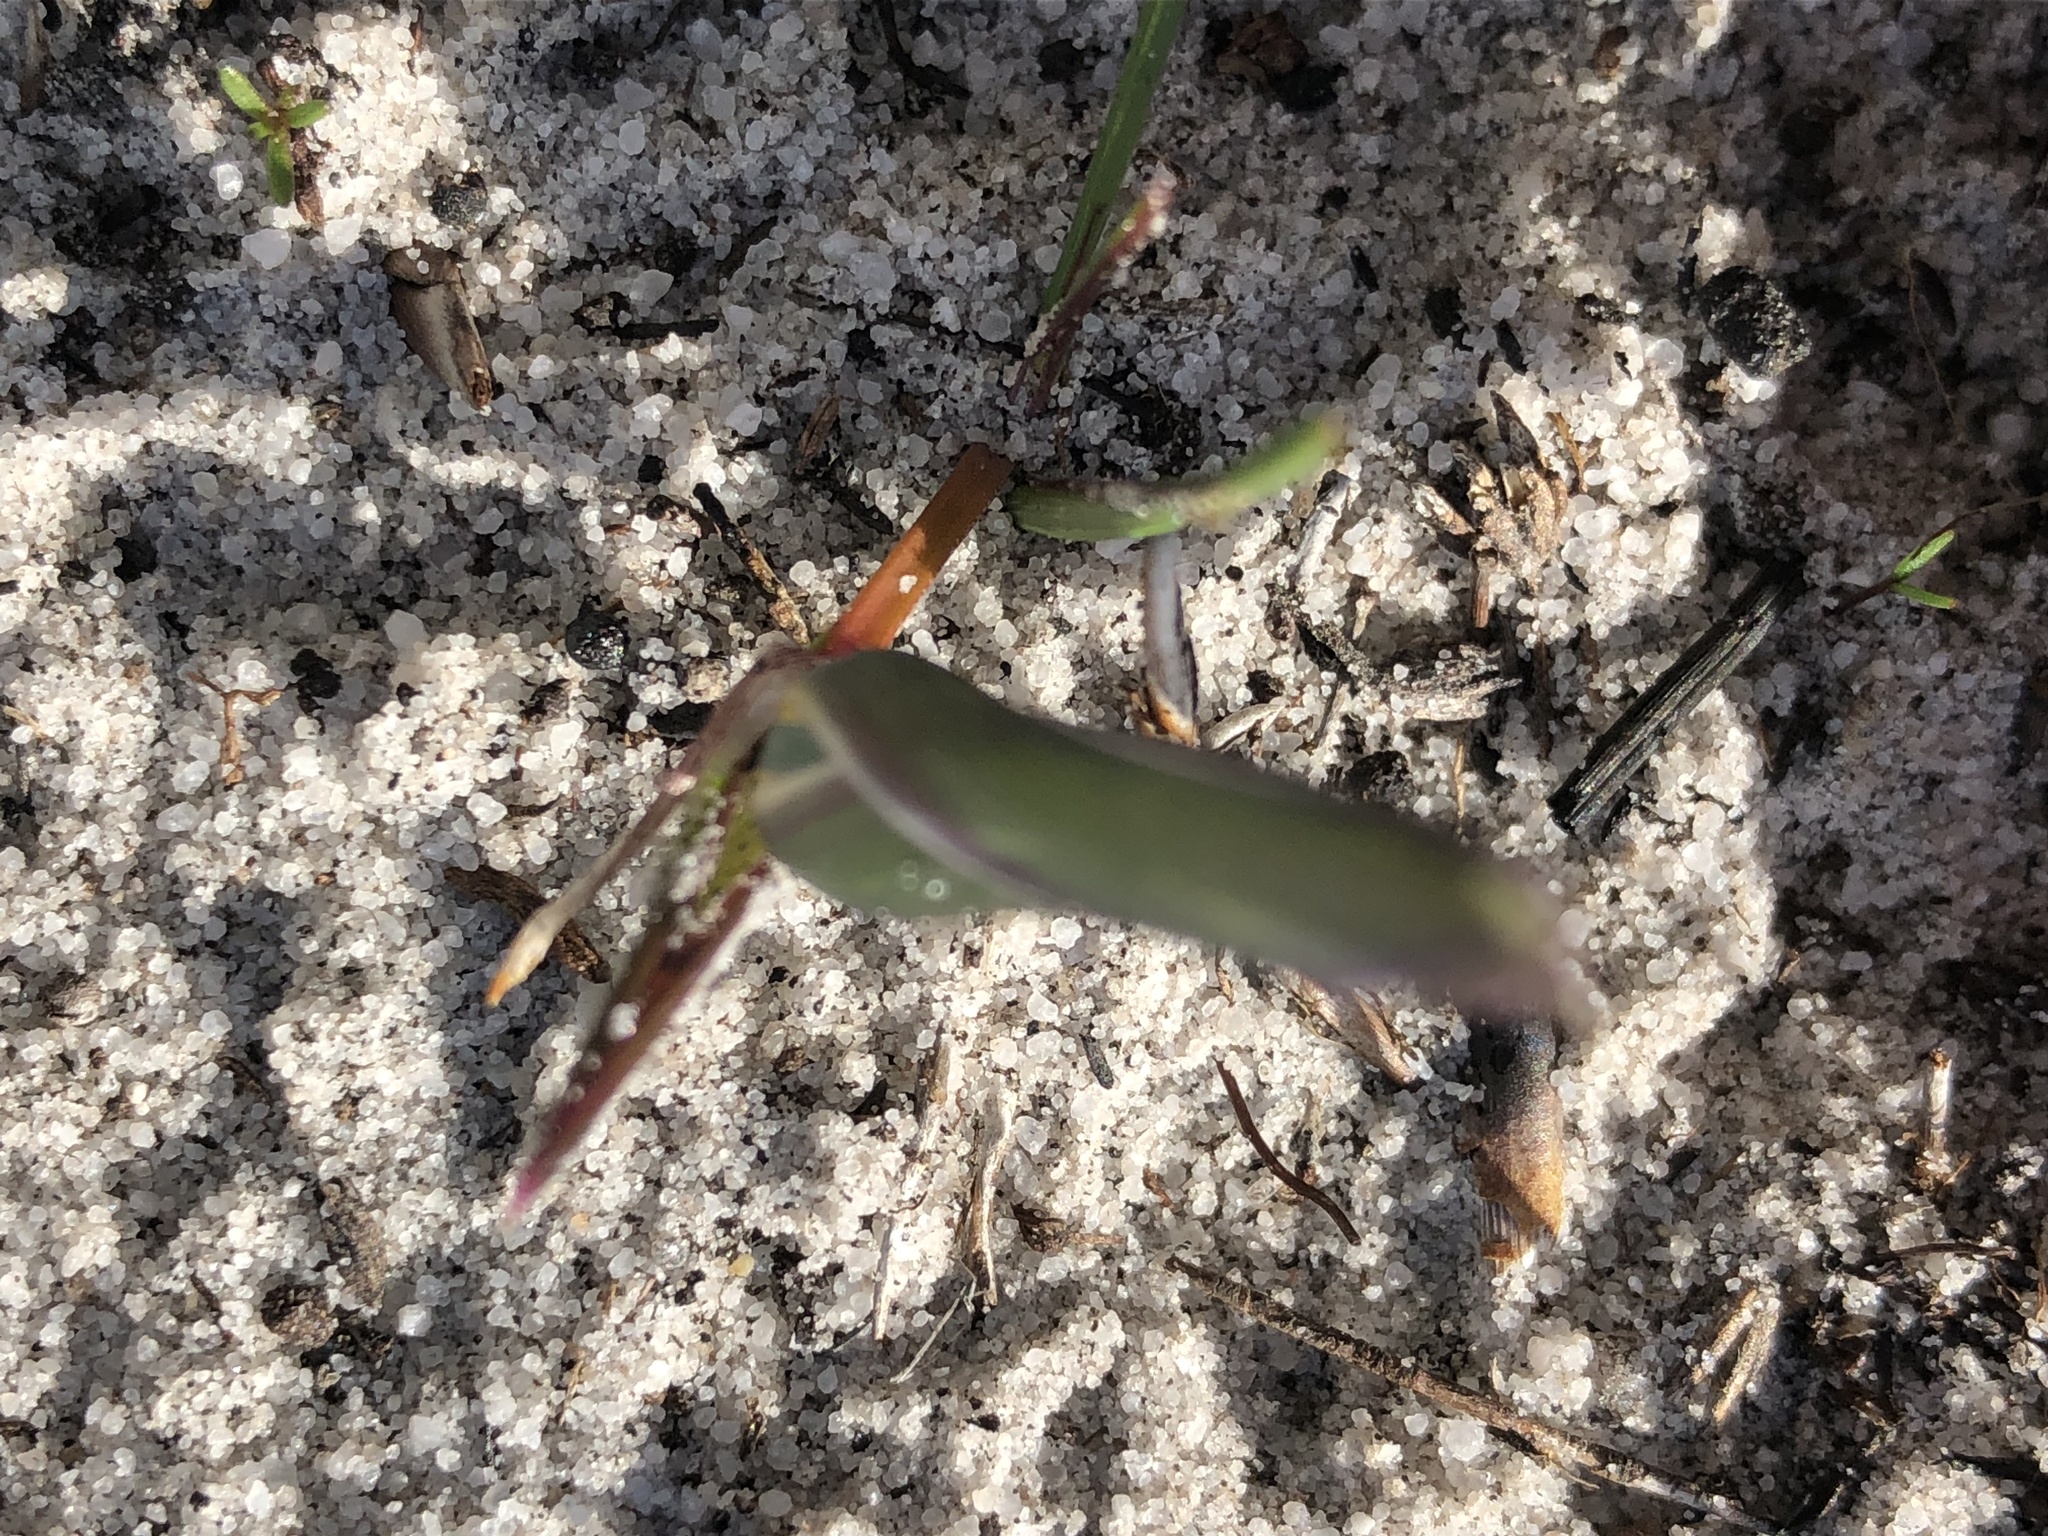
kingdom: Plantae
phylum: Tracheophyta
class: Liliopsida
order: Asparagales
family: Iridaceae
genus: Romulea
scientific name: Romulea flava
